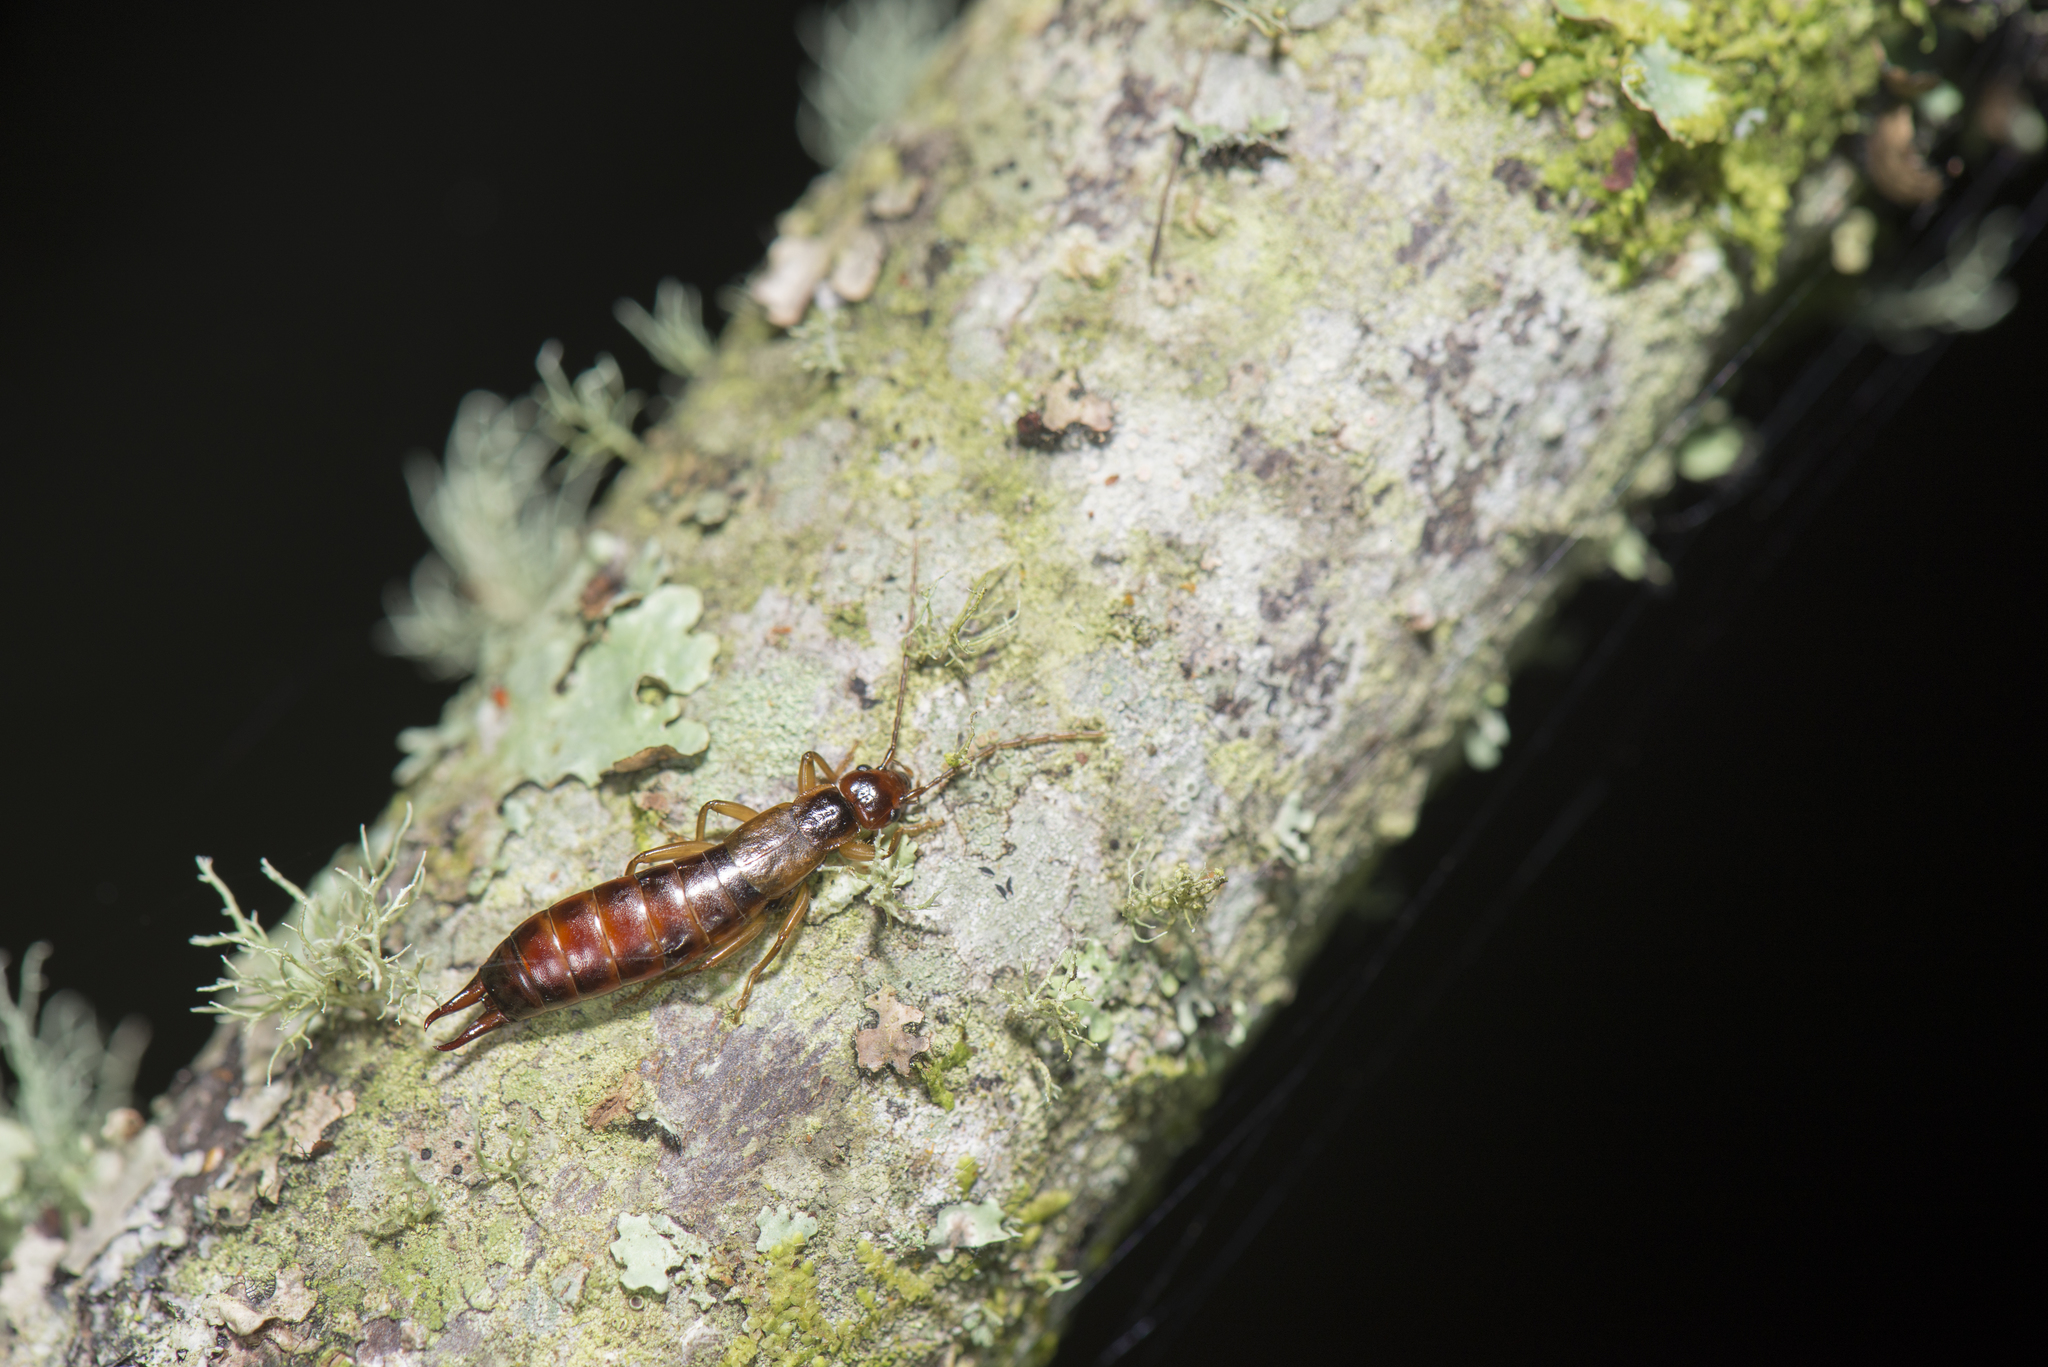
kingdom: Animalia
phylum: Arthropoda
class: Insecta
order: Dermaptera
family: Forficulidae
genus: Apterygida
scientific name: Apterygida tuberculosa
